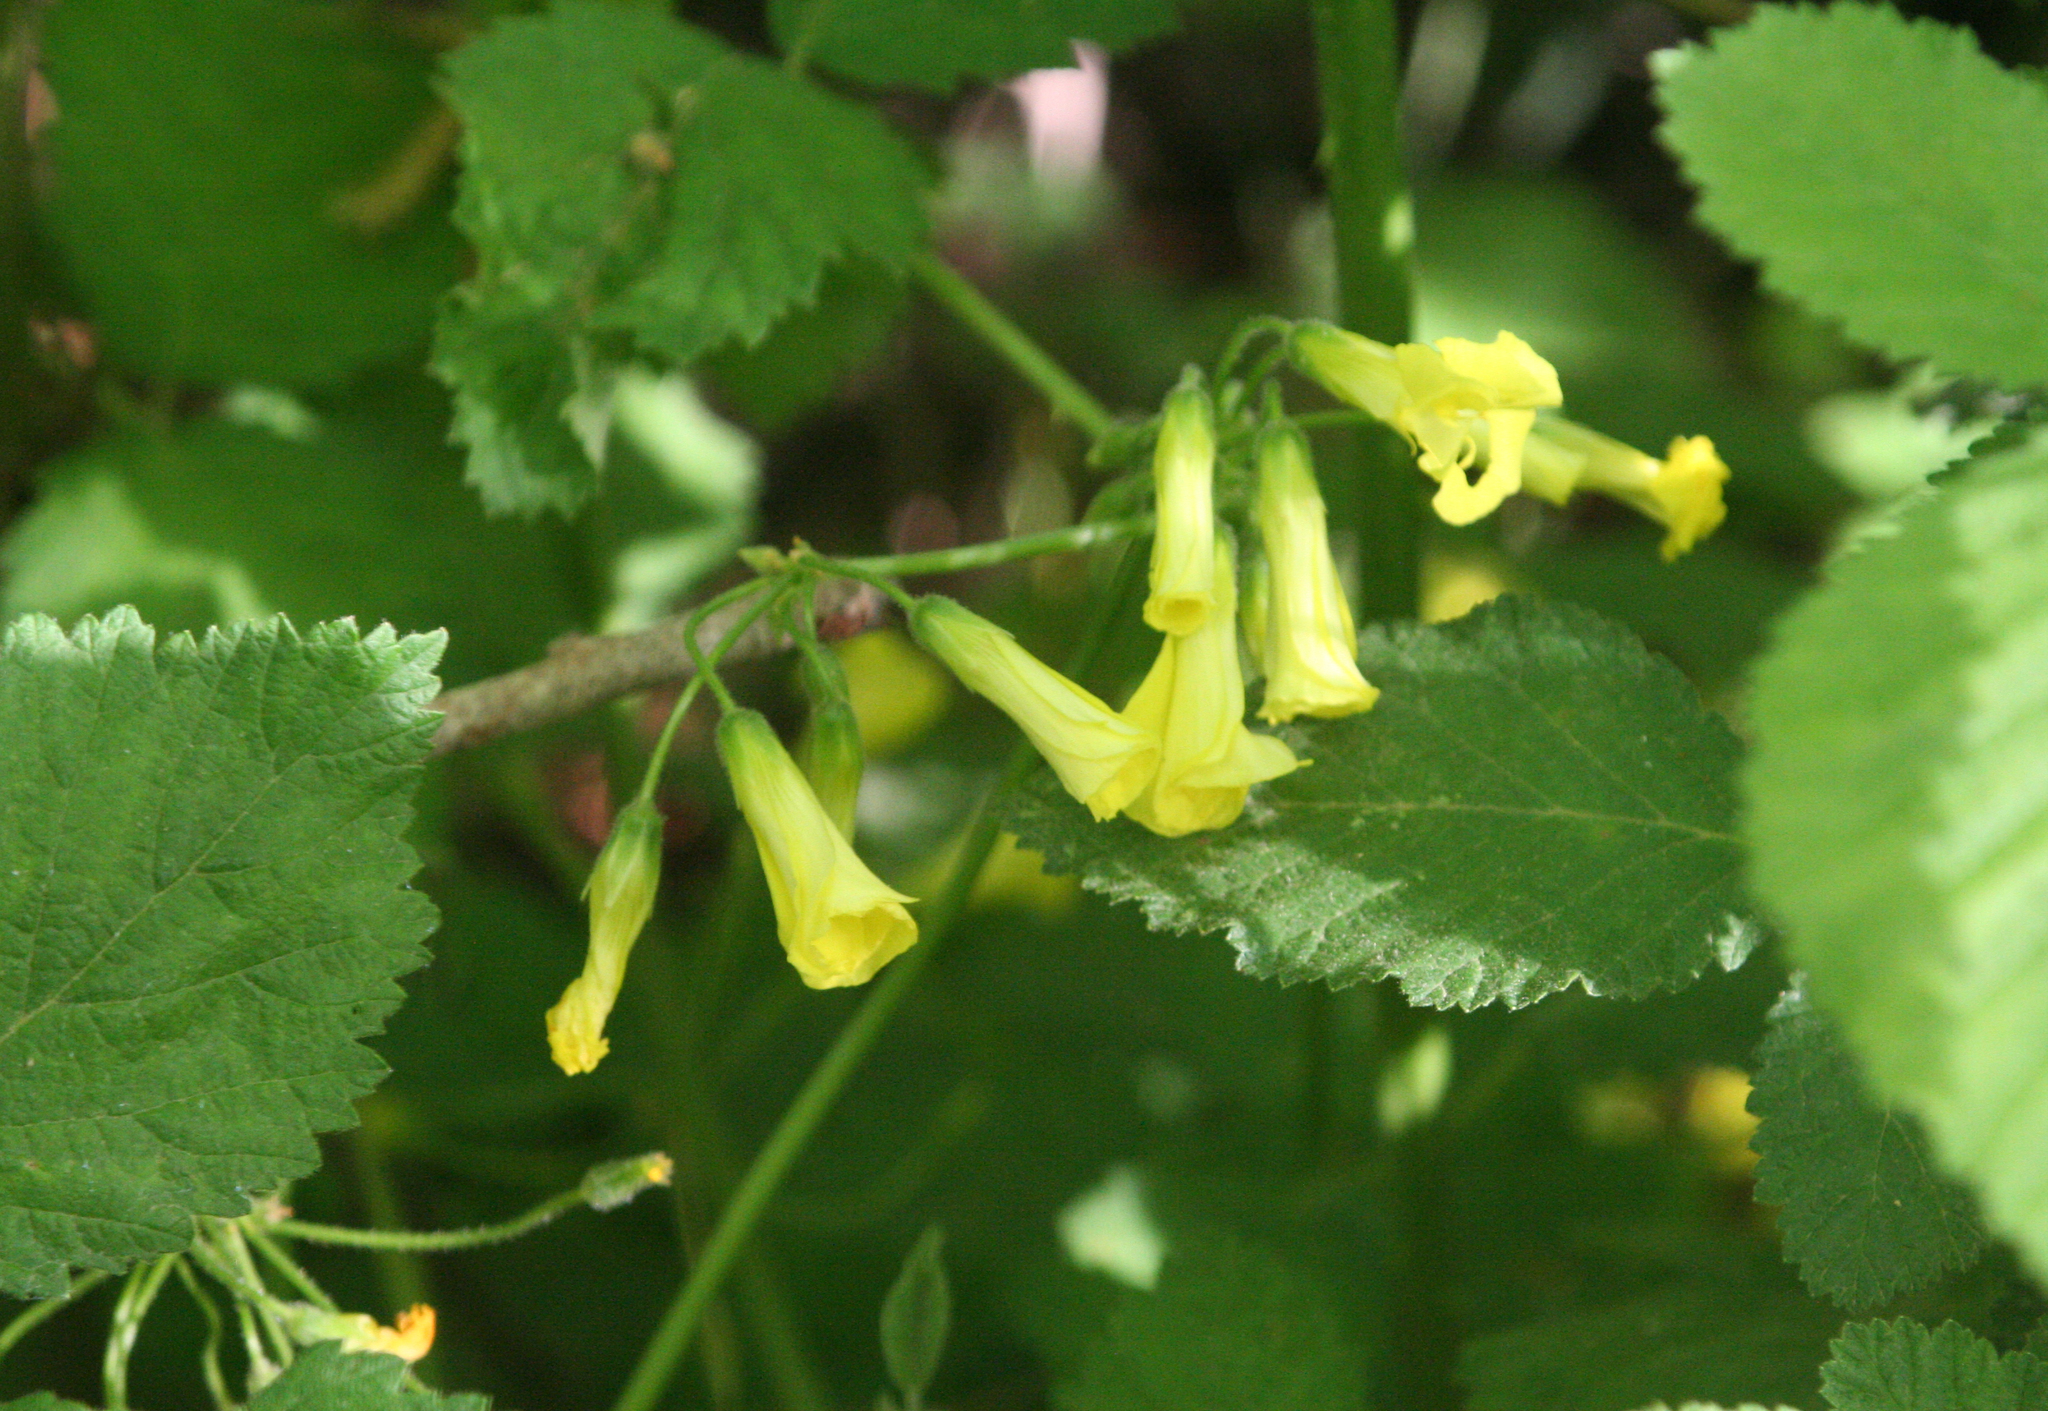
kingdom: Plantae
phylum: Tracheophyta
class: Magnoliopsida
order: Oxalidales
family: Oxalidaceae
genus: Oxalis
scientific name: Oxalis pes-caprae
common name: Bermuda-buttercup
